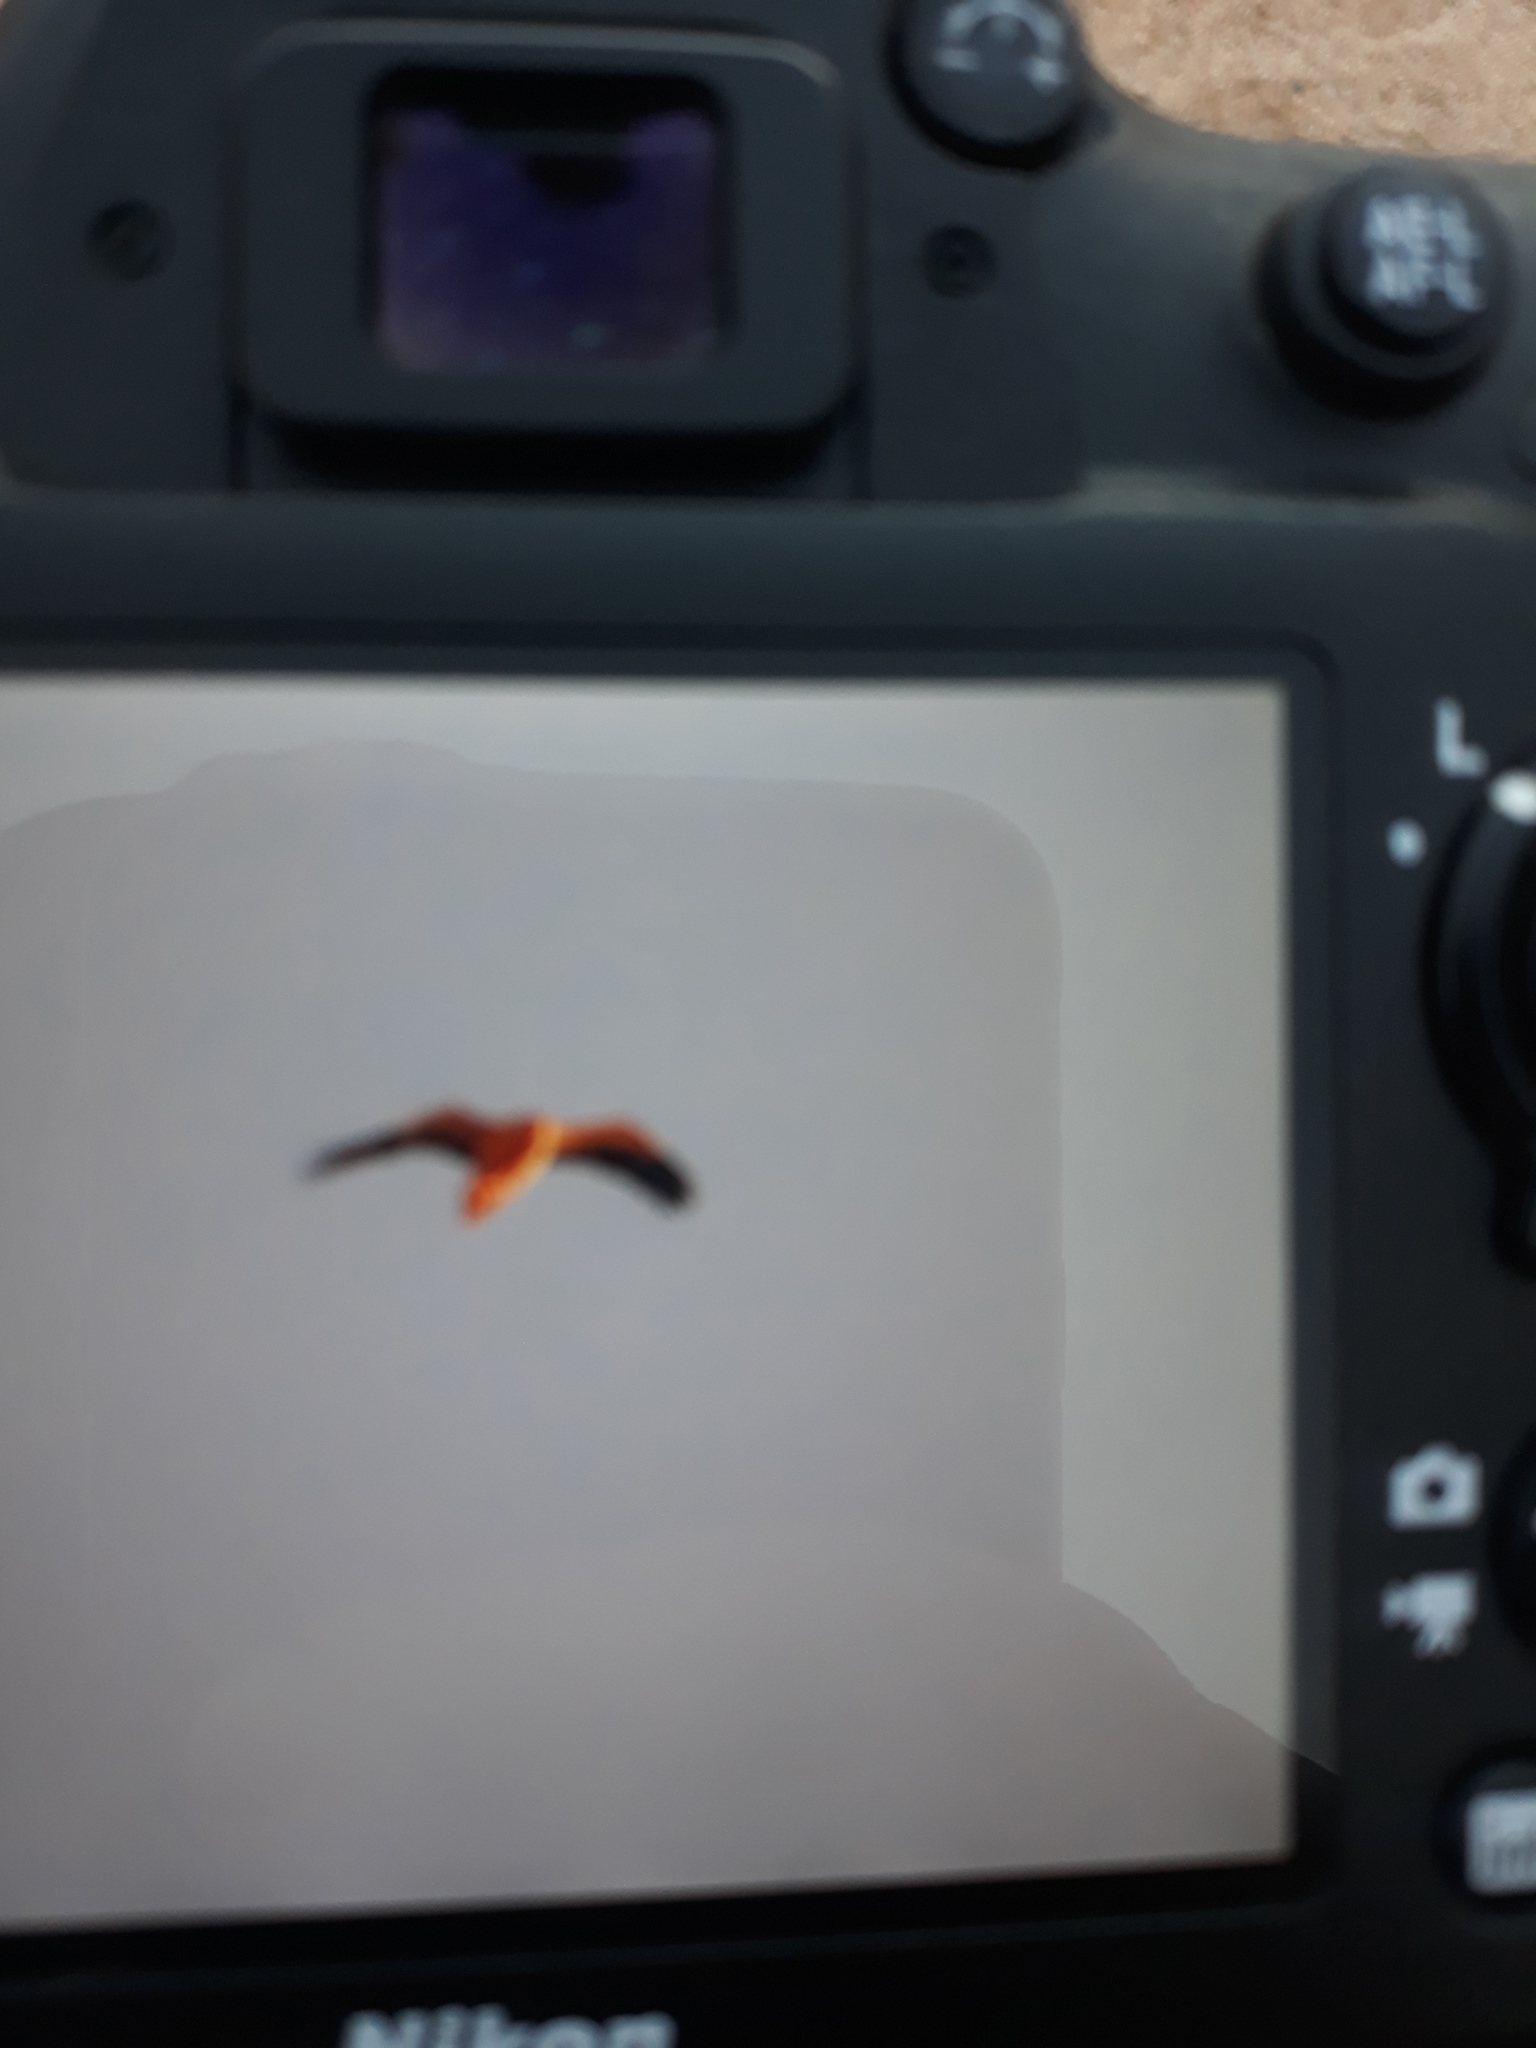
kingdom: Animalia
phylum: Chordata
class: Aves
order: Accipitriformes
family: Accipitridae
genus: Neophron
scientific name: Neophron percnopterus
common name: Egyptian vulture
